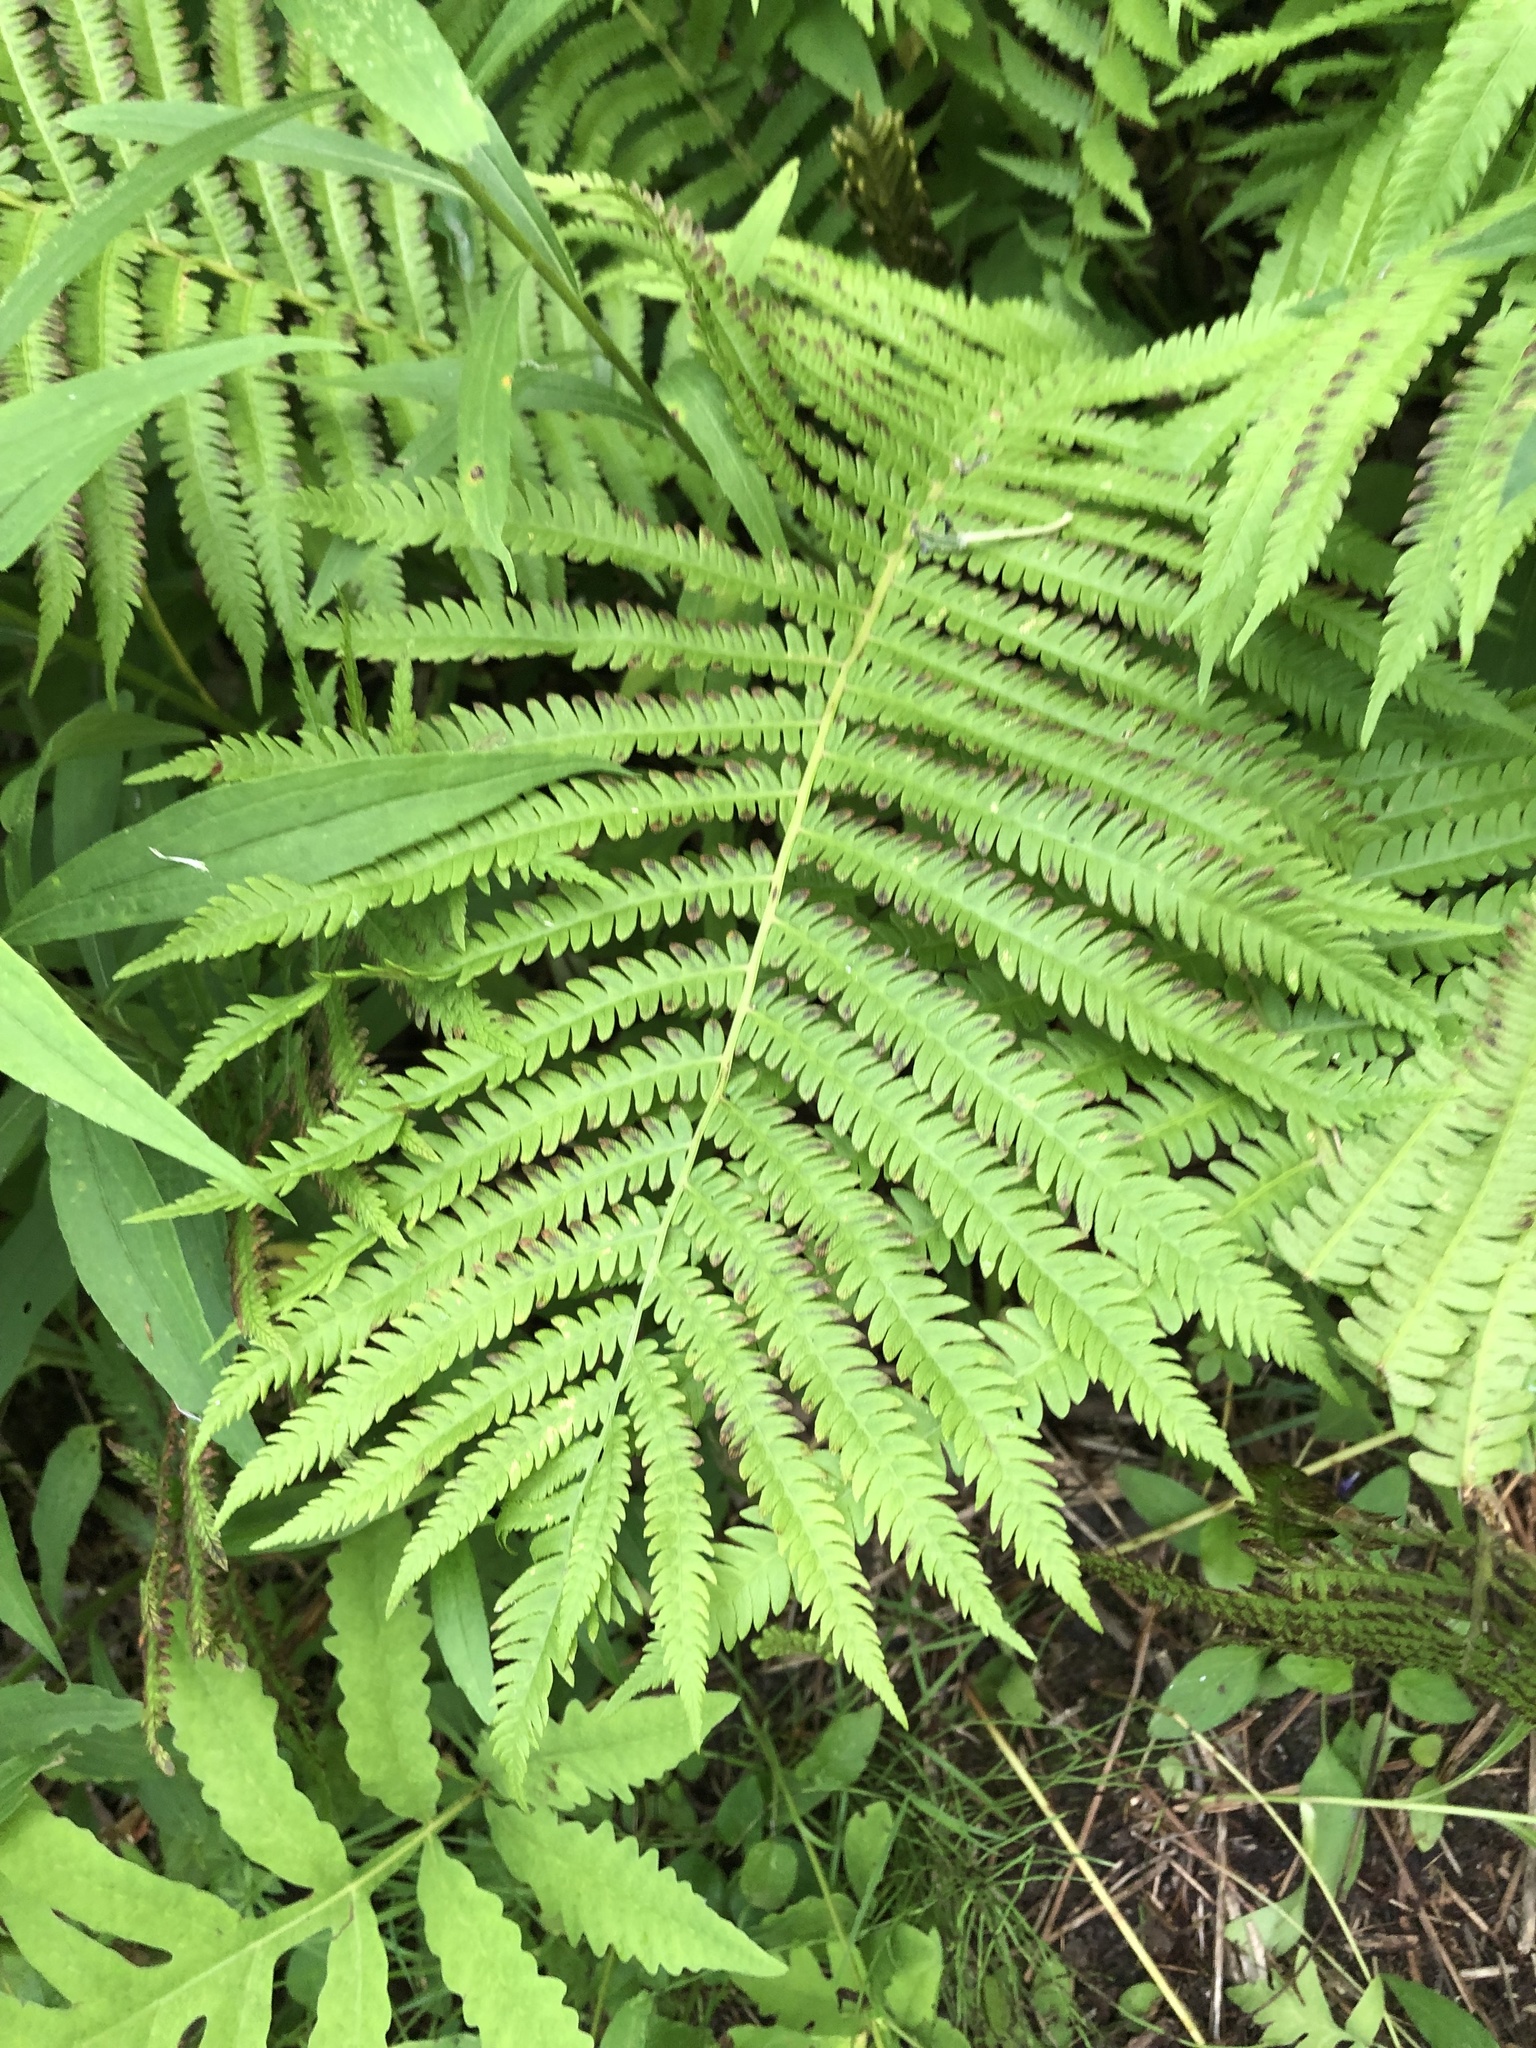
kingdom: Plantae
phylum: Tracheophyta
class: Polypodiopsida
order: Polypodiales
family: Onocleaceae
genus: Matteuccia
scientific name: Matteuccia struthiopteris
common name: Ostrich fern
